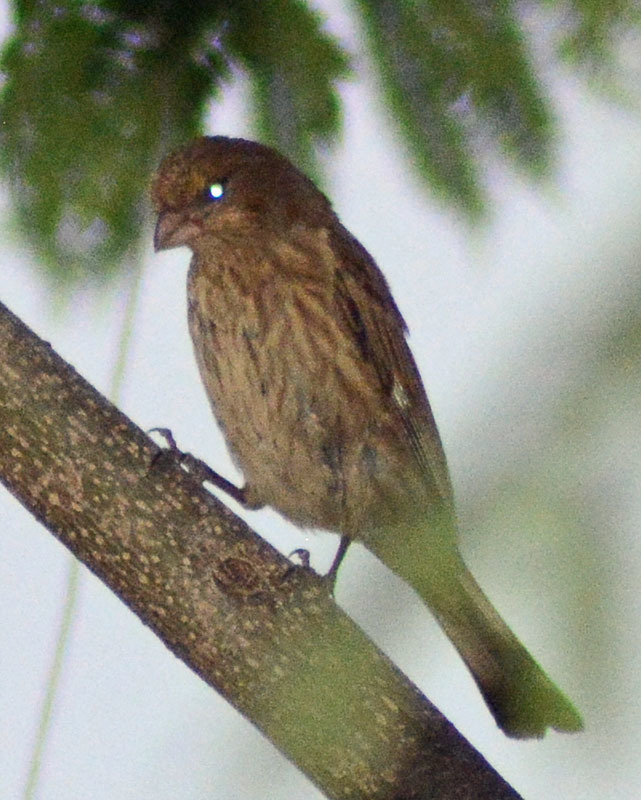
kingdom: Animalia
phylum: Chordata
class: Aves
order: Passeriformes
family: Fringillidae
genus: Haemorhous
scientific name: Haemorhous mexicanus
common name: House finch
